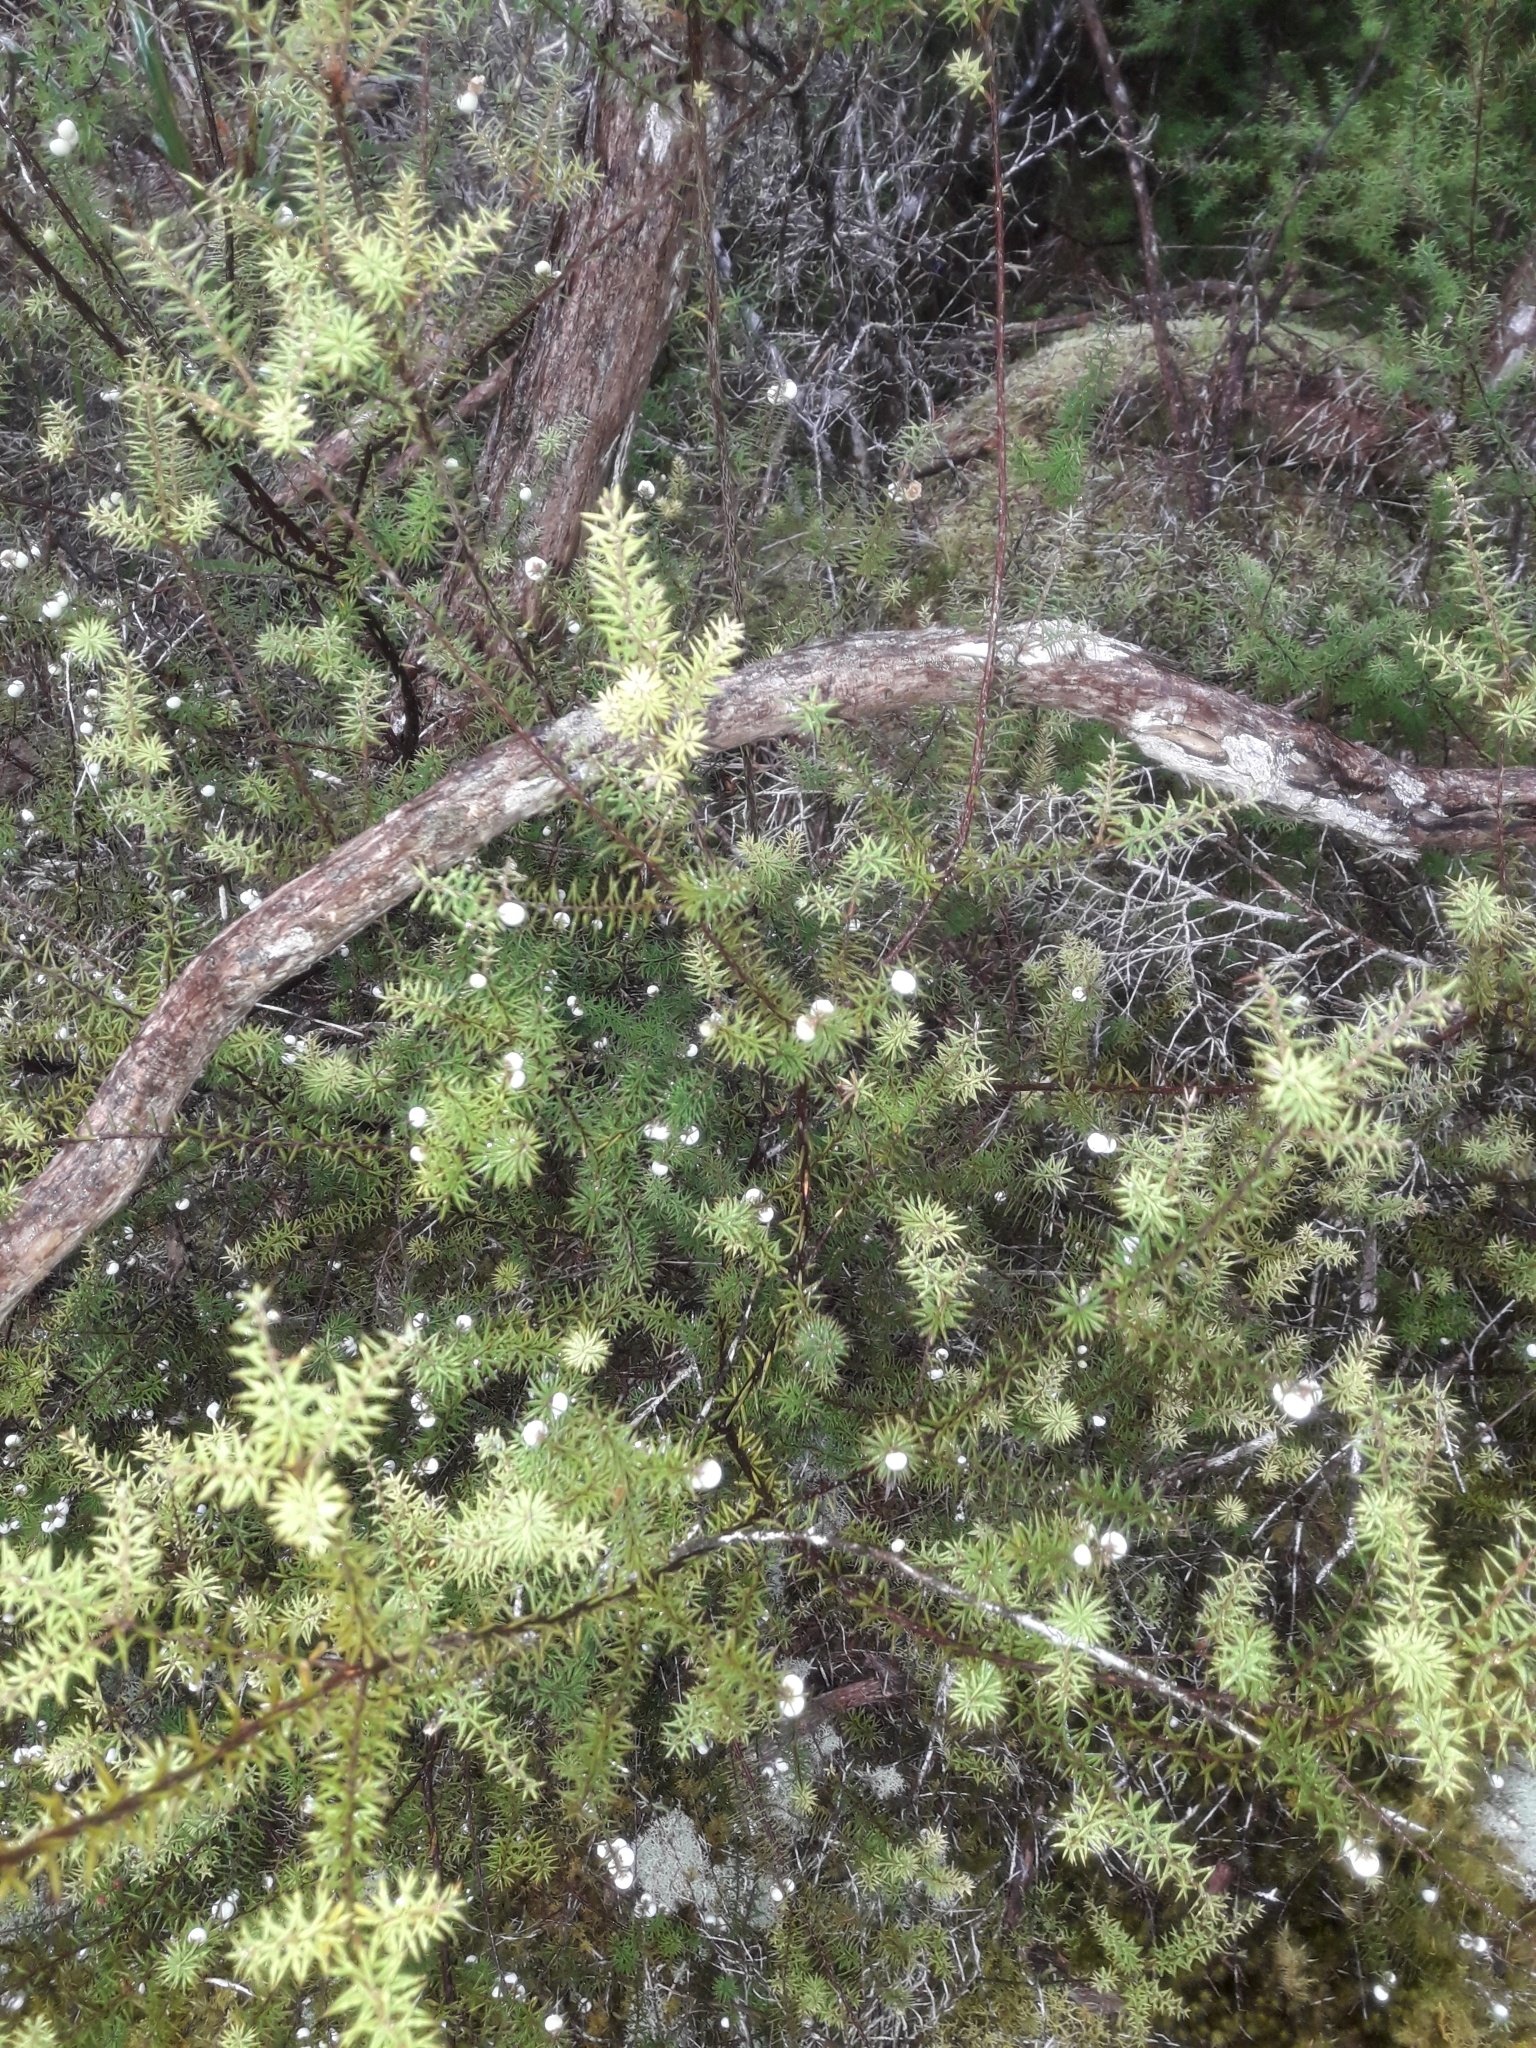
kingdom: Plantae
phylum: Tracheophyta
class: Magnoliopsida
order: Ericales
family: Ericaceae
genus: Leptecophylla
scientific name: Leptecophylla juniperina
